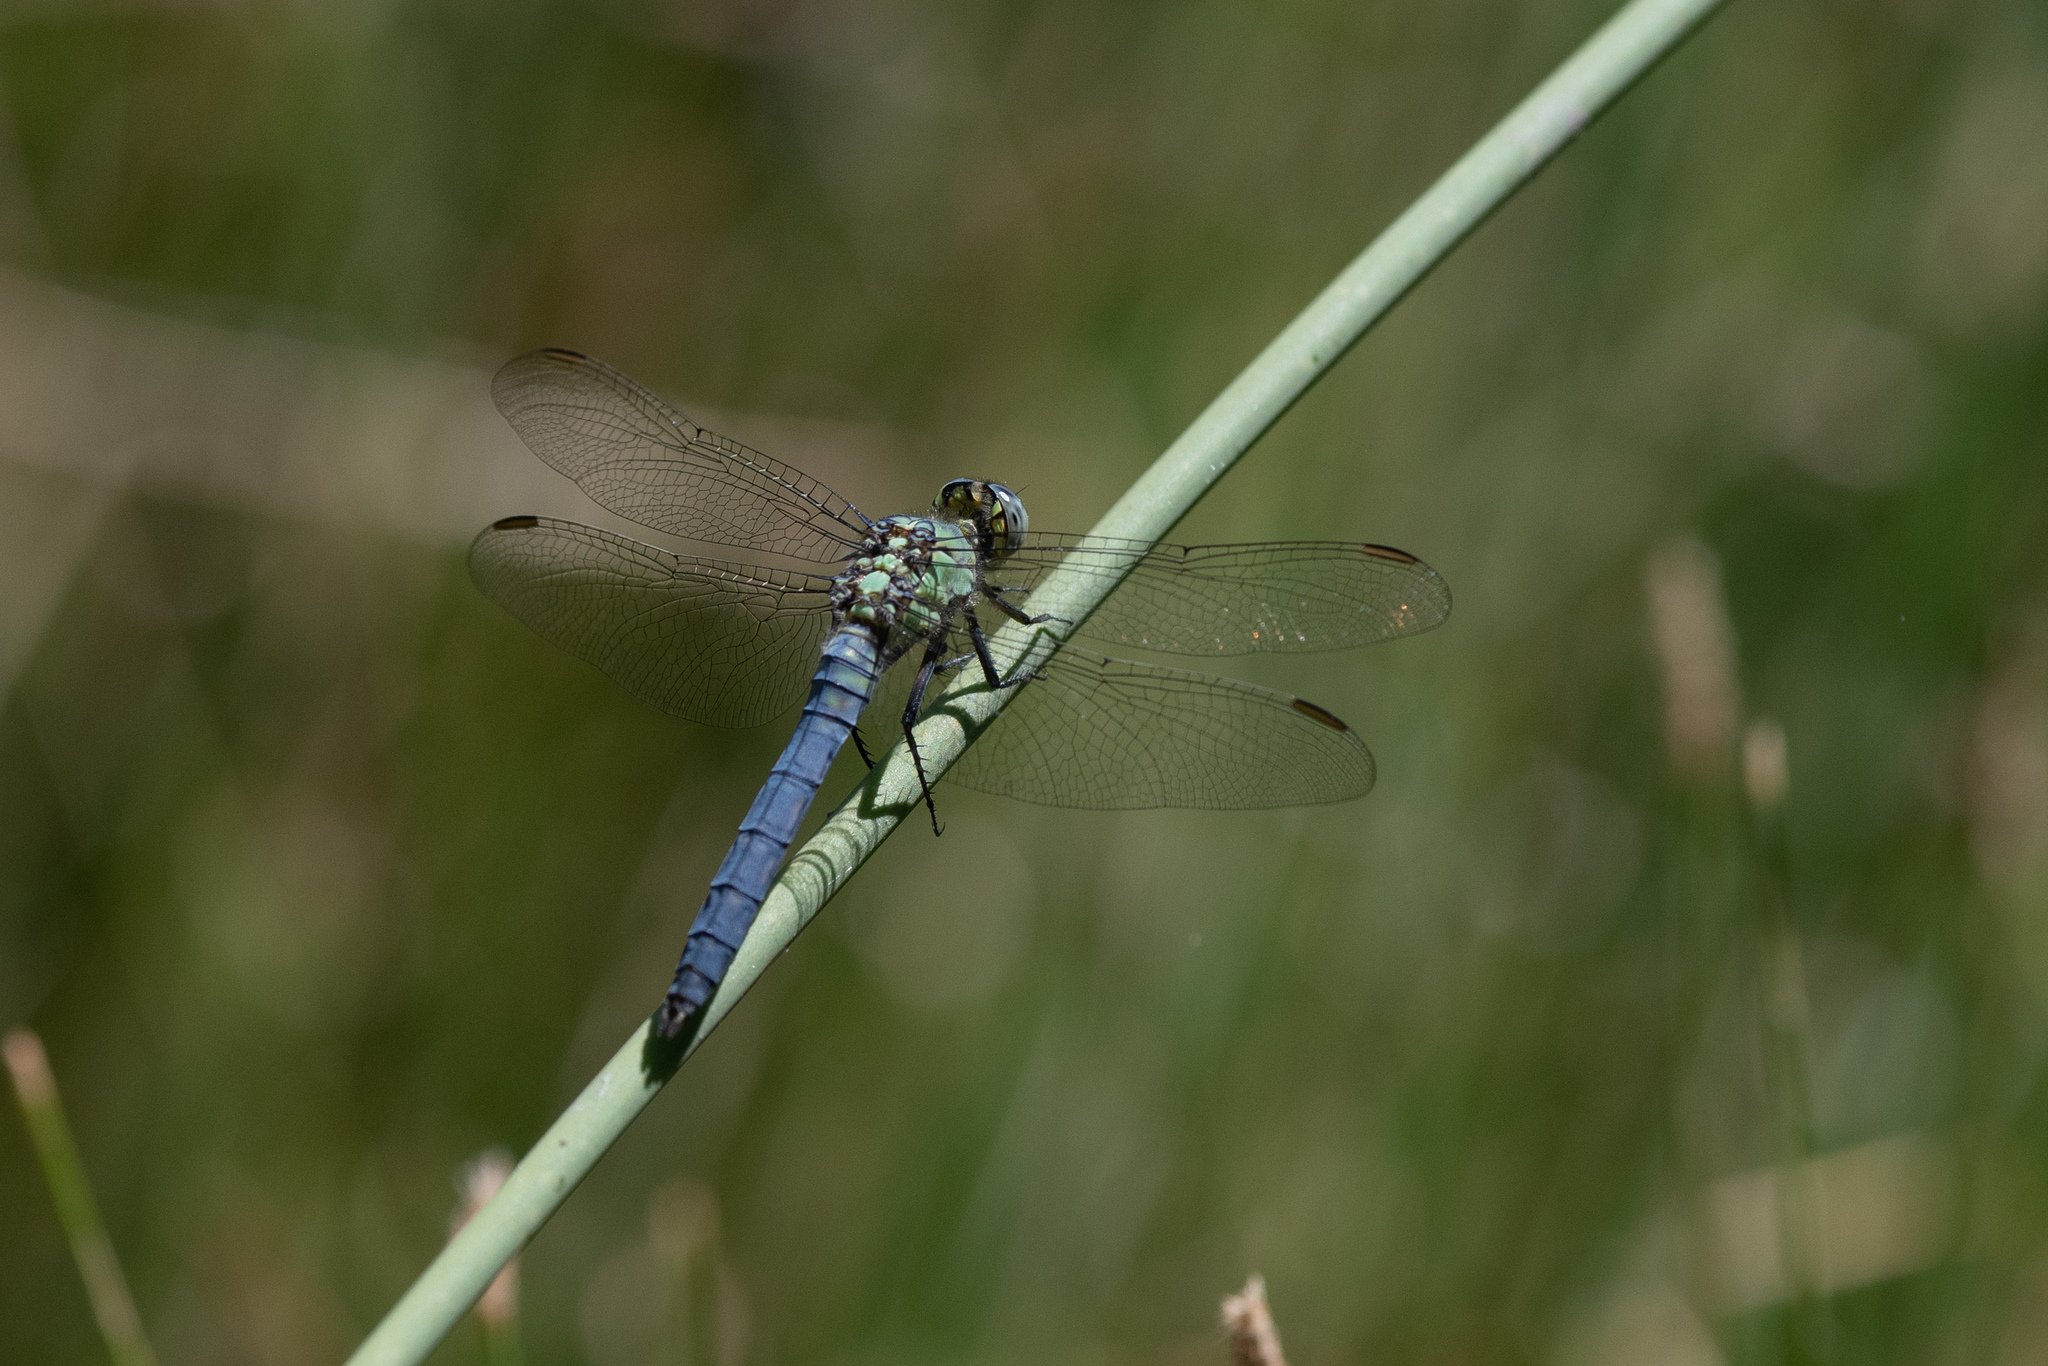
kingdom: Animalia
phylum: Arthropoda
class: Insecta
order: Odonata
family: Libellulidae
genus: Erythemis
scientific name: Erythemis collocata
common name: Western pondhawk
